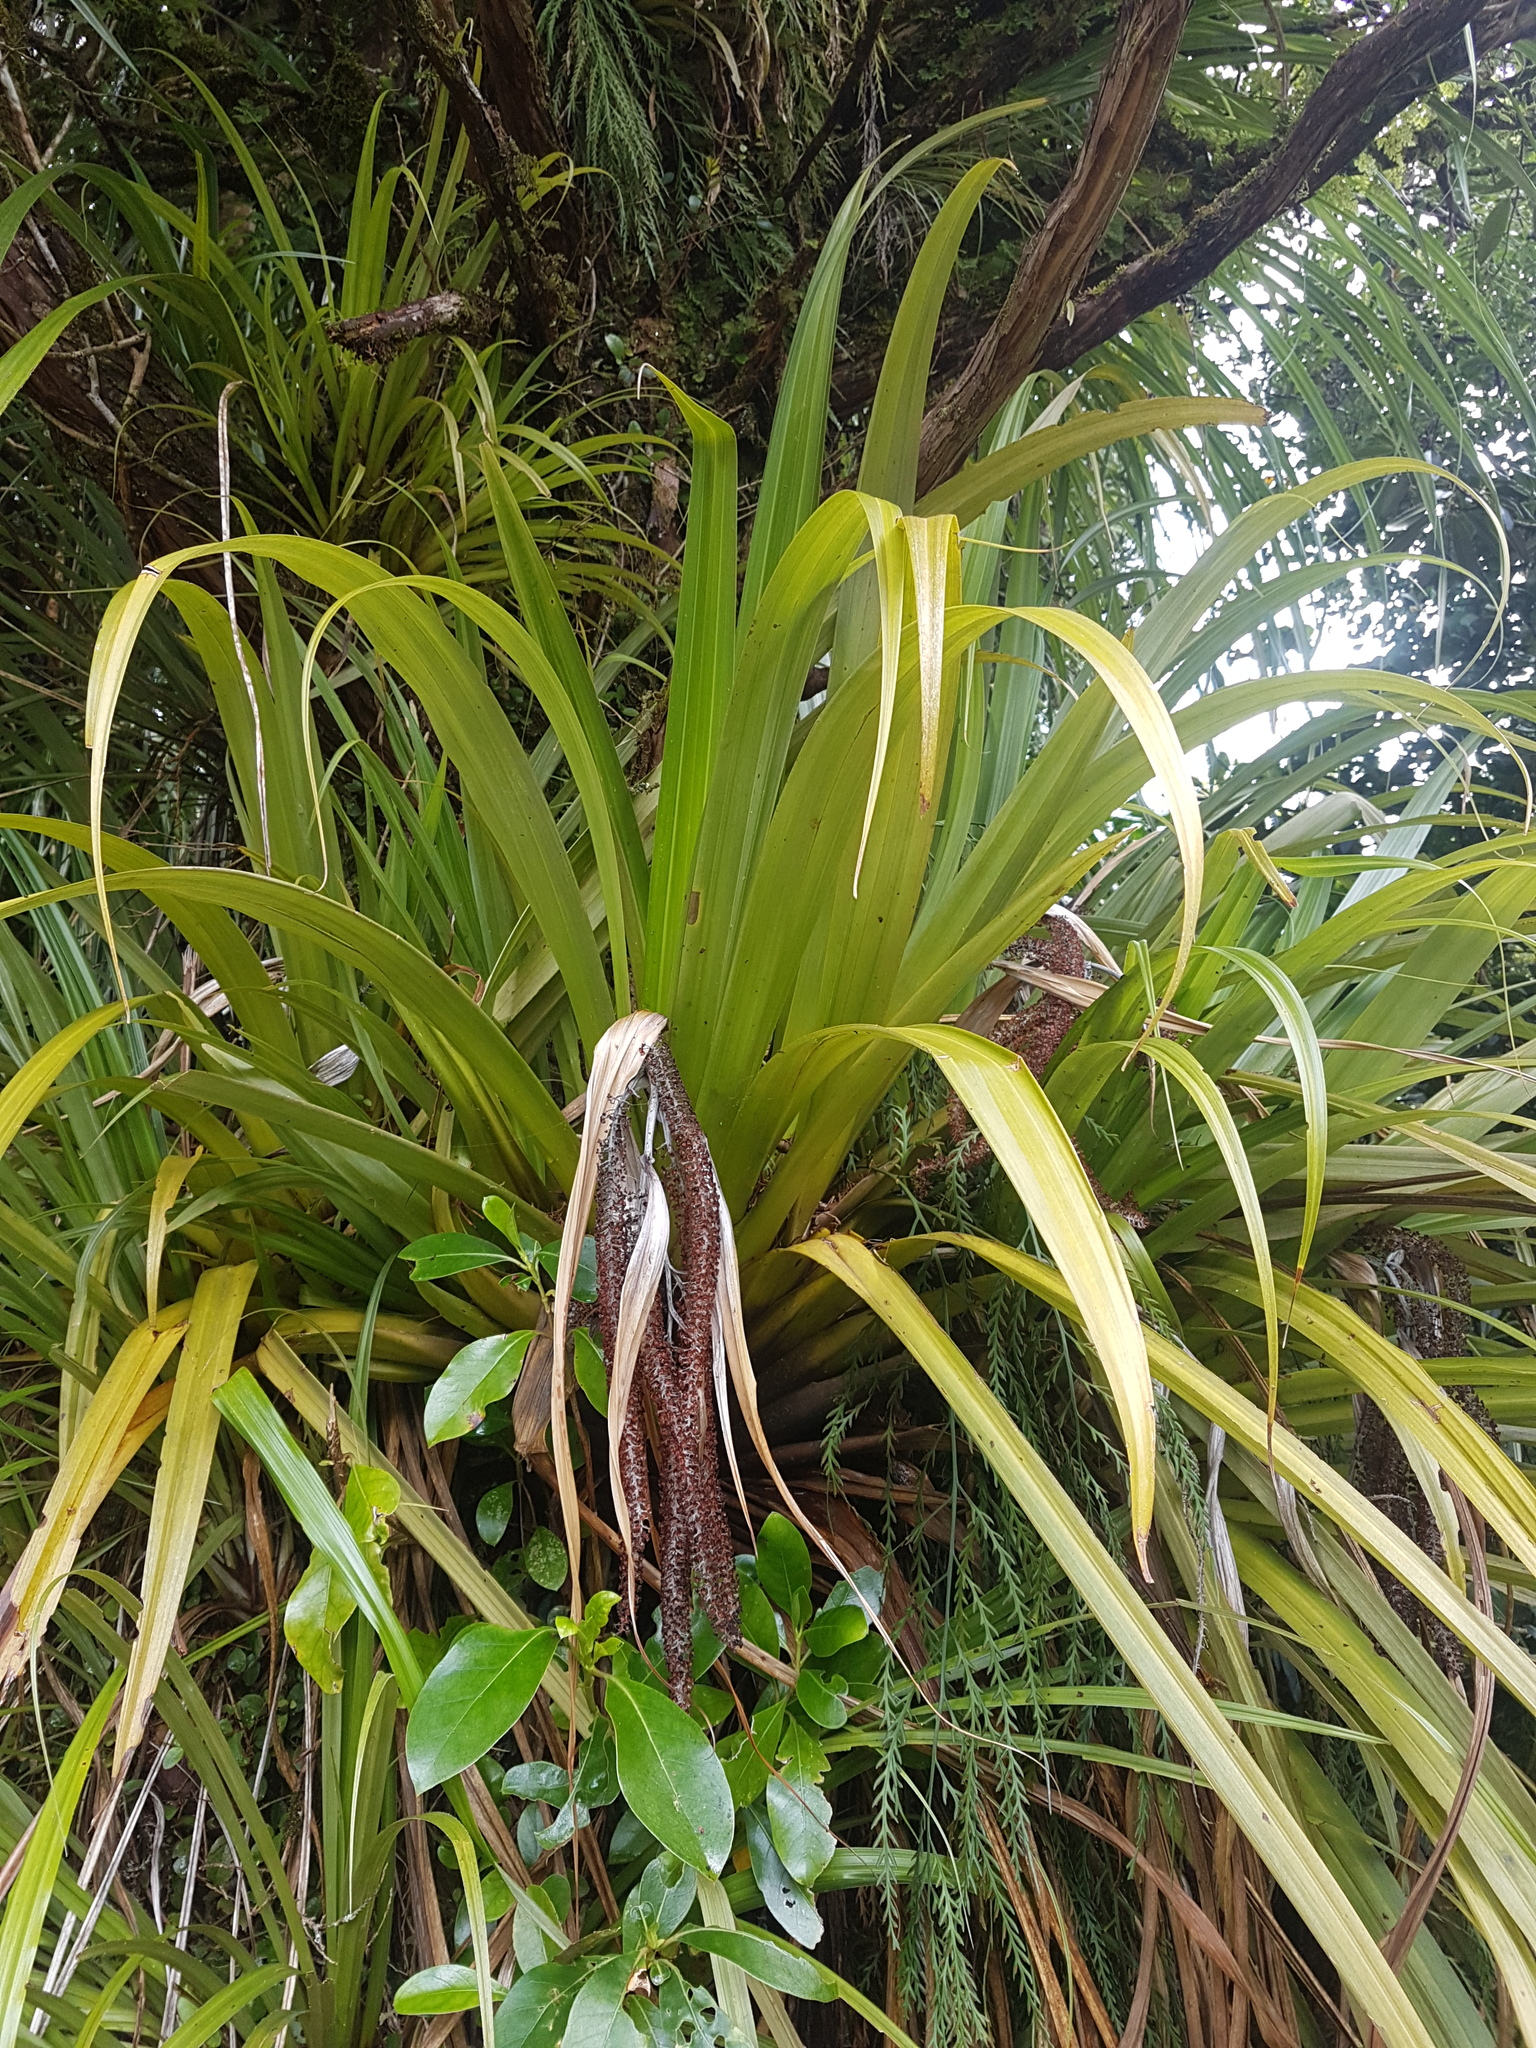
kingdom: Plantae
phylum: Tracheophyta
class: Liliopsida
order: Asparagales
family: Asteliaceae
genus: Astelia
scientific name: Astelia hastata
